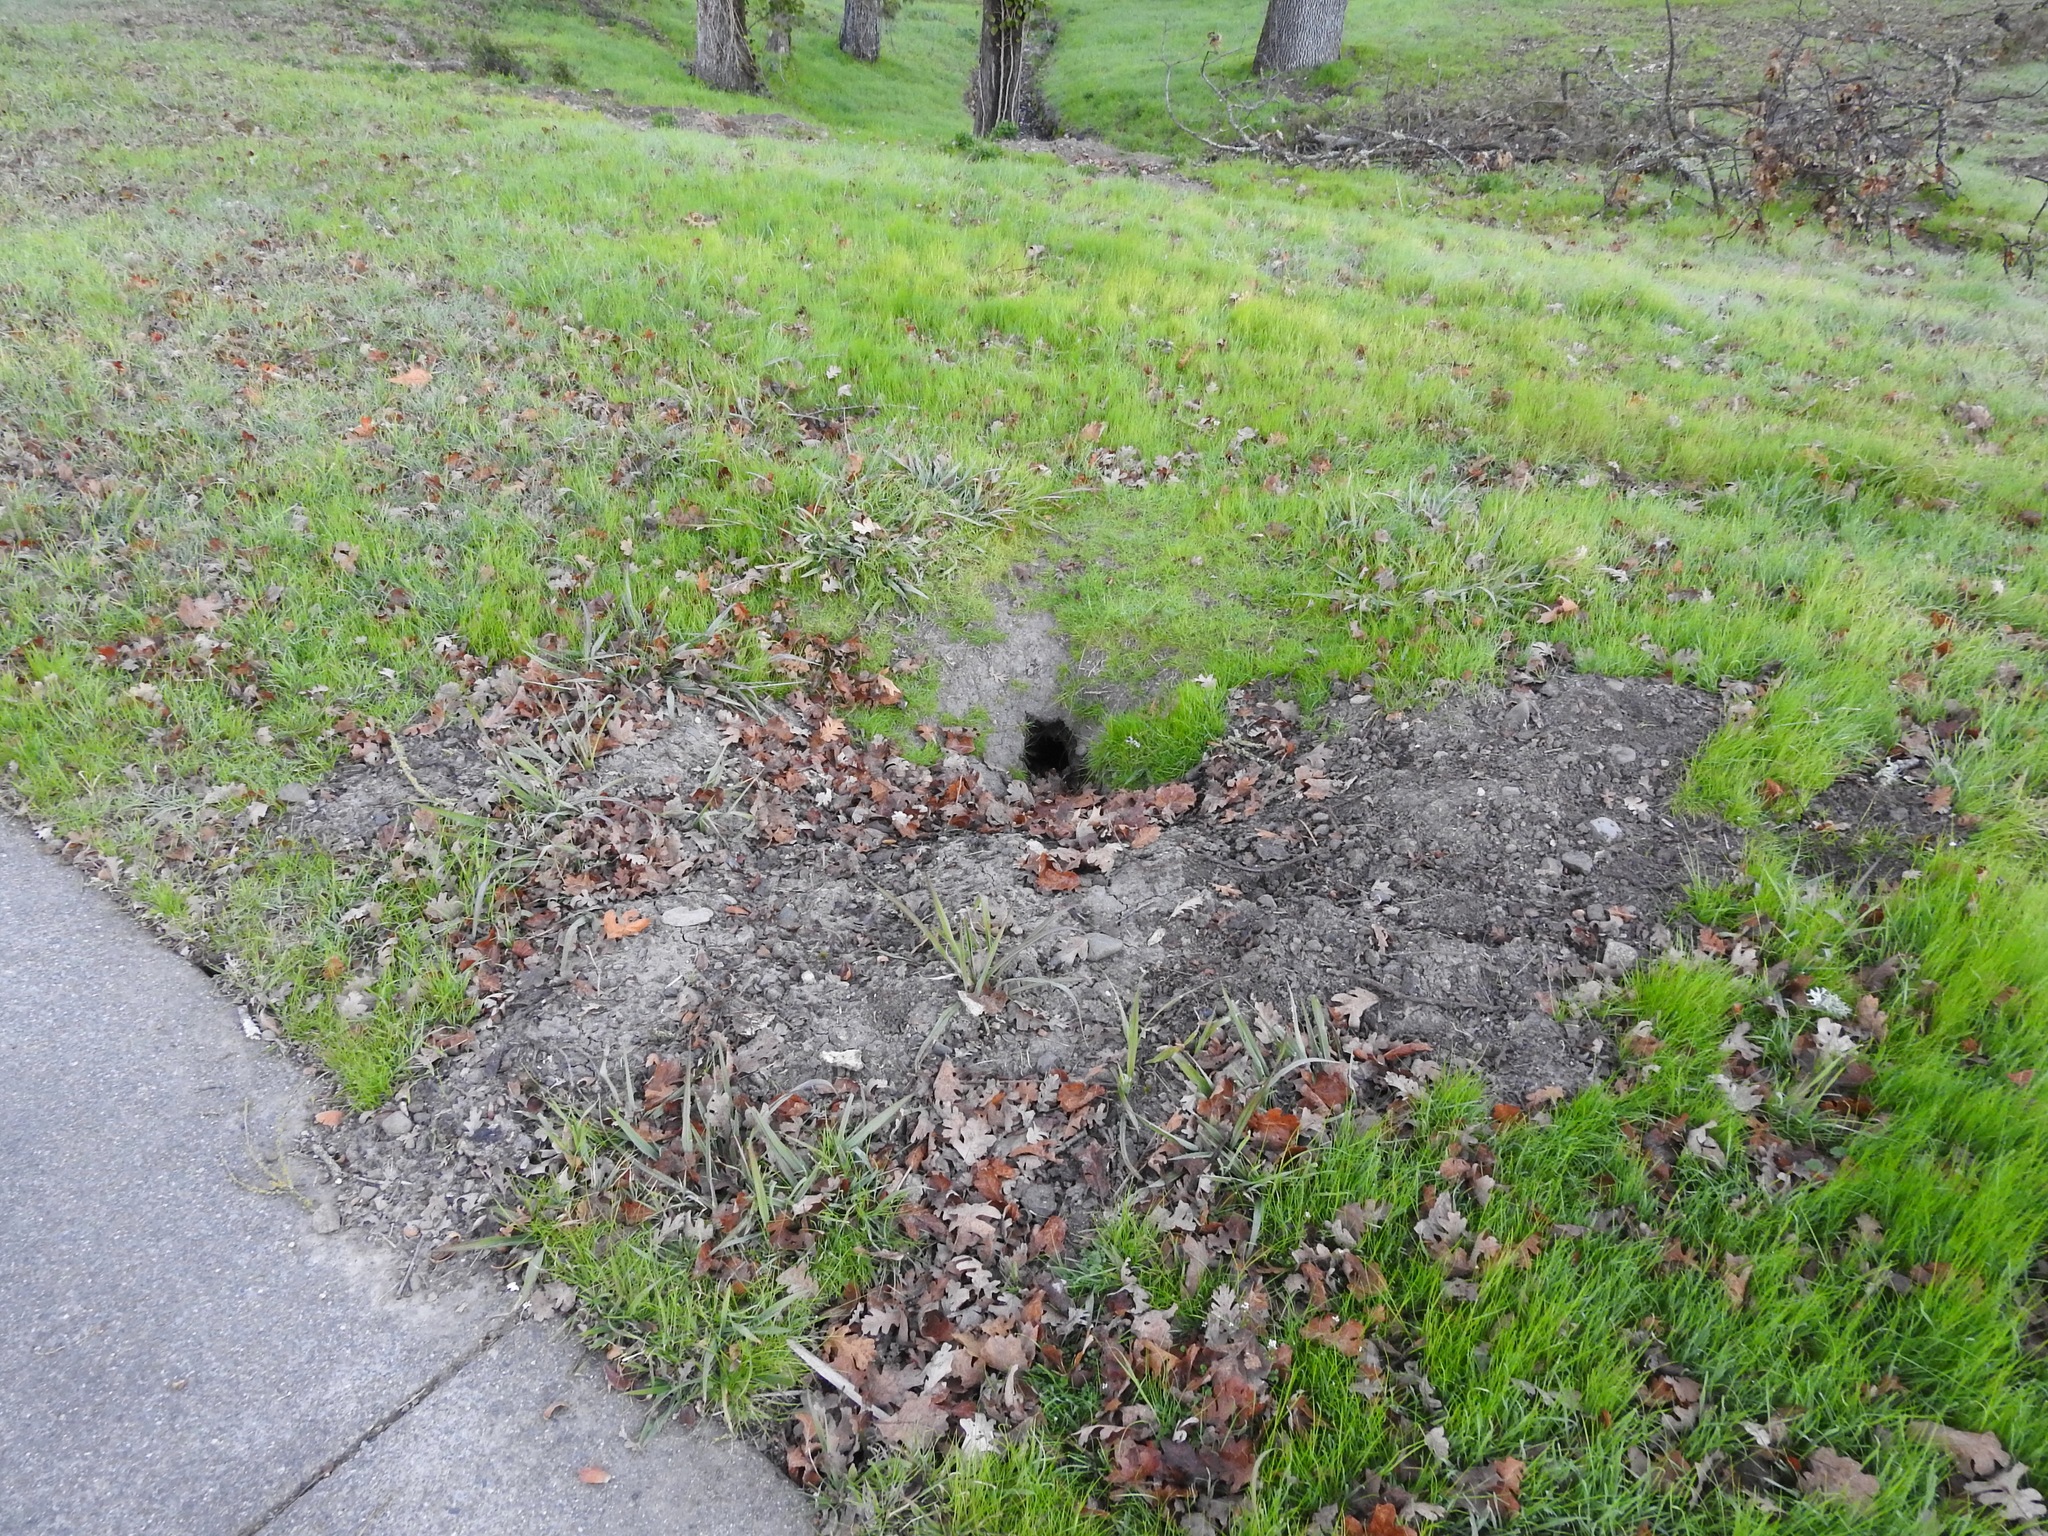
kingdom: Animalia
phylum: Chordata
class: Mammalia
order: Rodentia
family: Sciuridae
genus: Otospermophilus
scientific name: Otospermophilus beecheyi
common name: California ground squirrel
